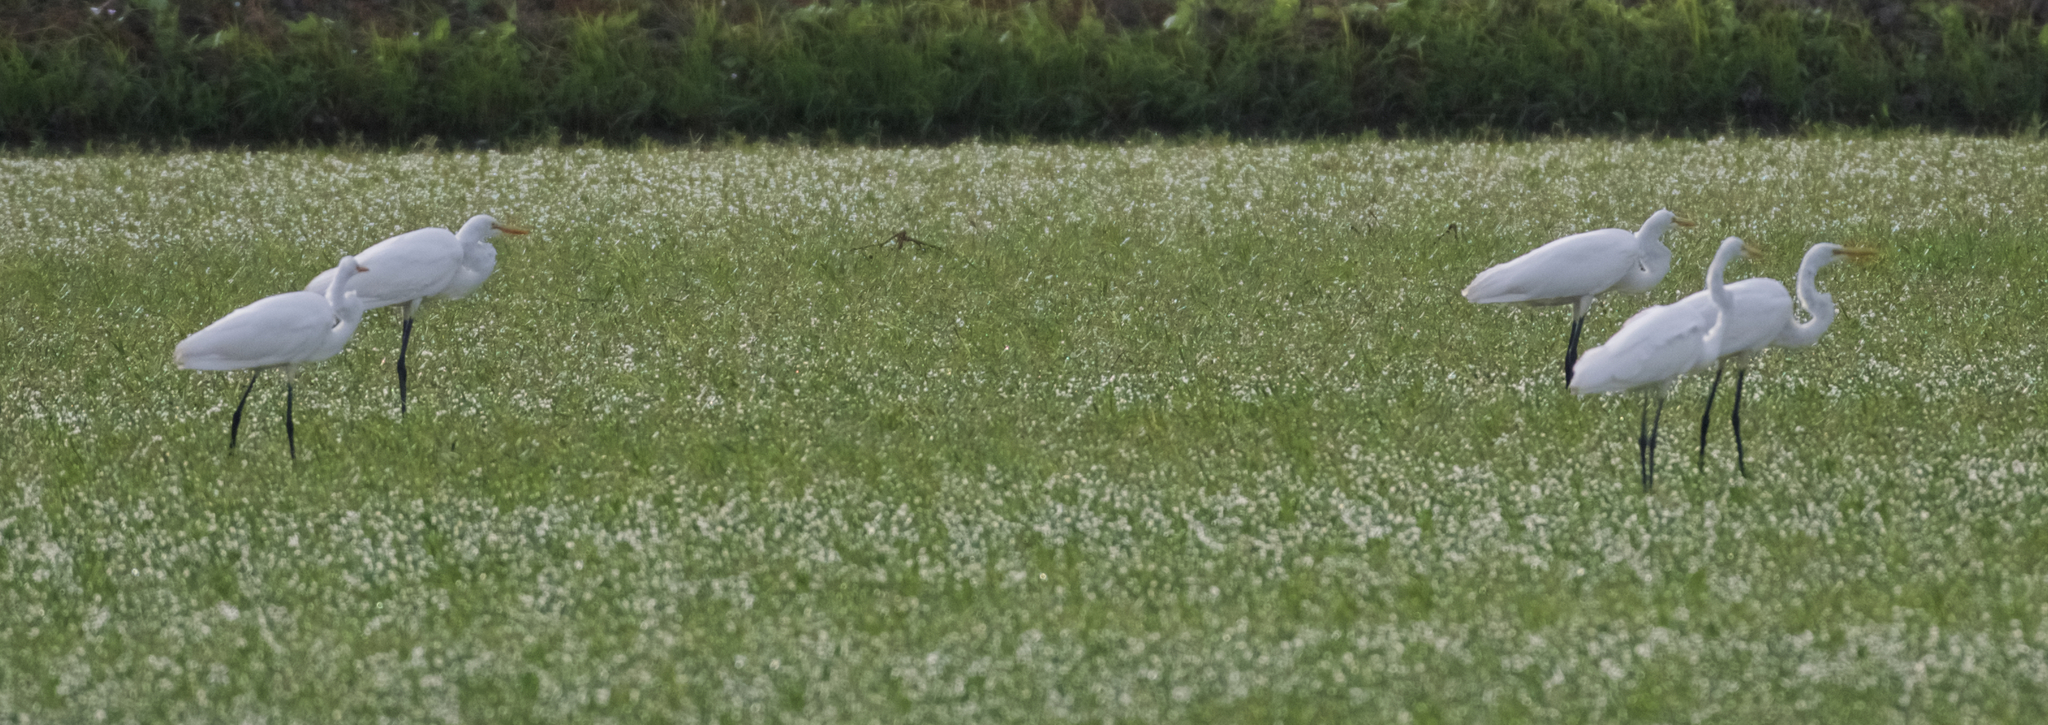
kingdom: Animalia
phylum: Chordata
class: Aves
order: Pelecaniformes
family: Ardeidae
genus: Ardea
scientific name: Ardea alba
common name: Great egret
